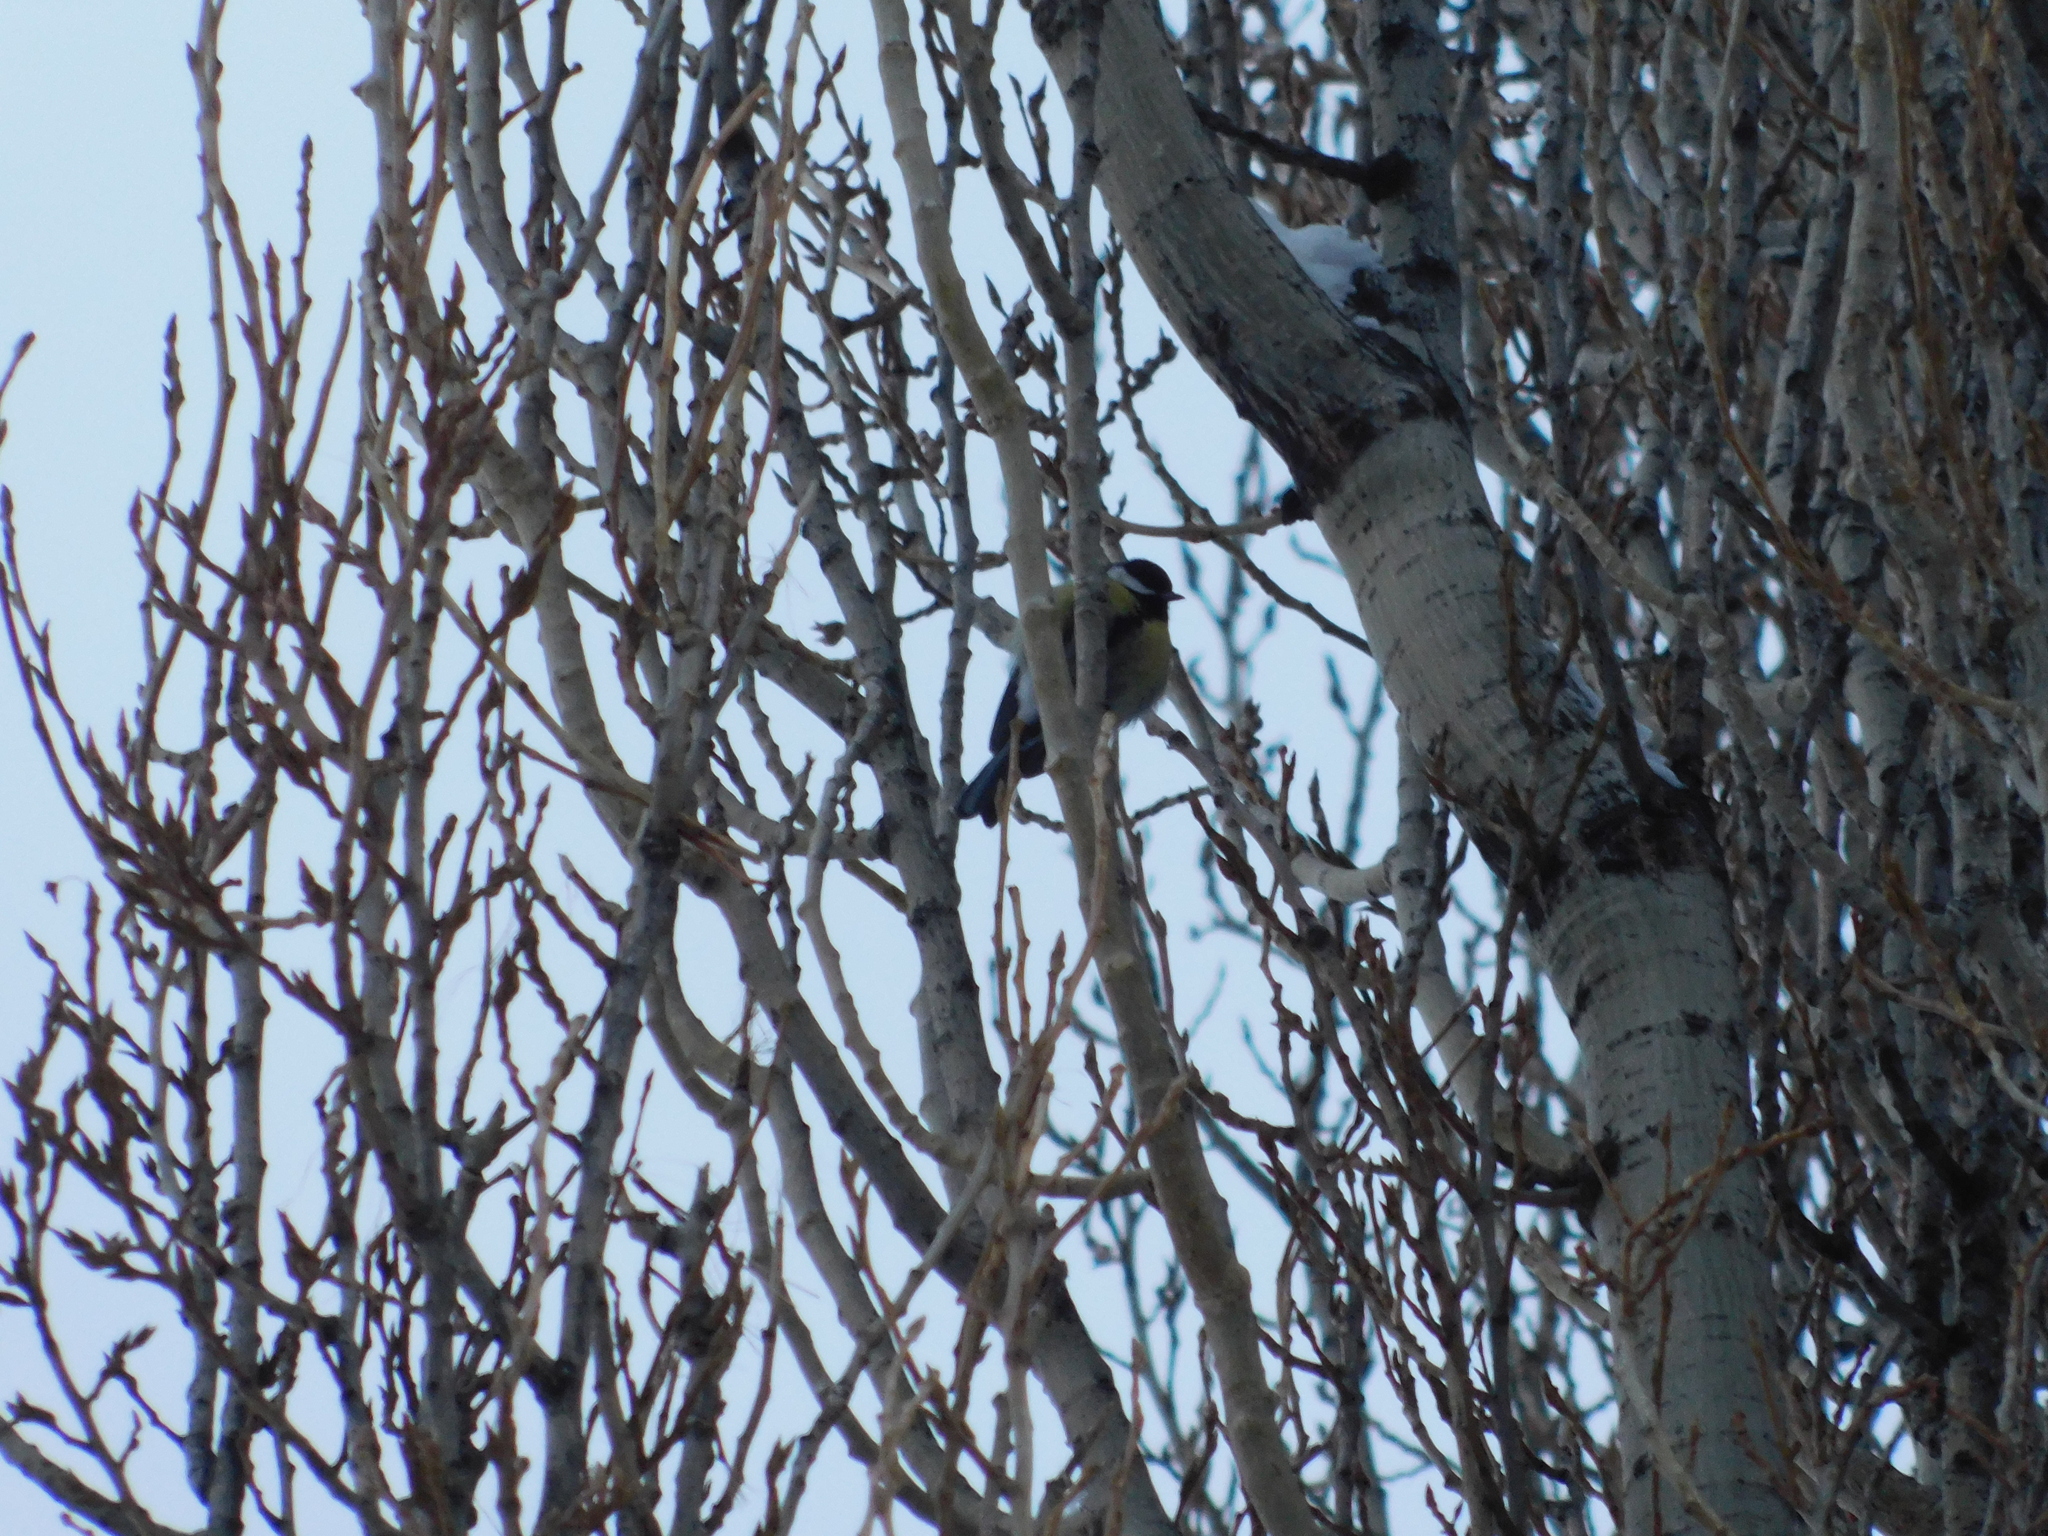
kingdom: Animalia
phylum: Chordata
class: Aves
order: Passeriformes
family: Paridae
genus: Parus
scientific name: Parus major
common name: Great tit
